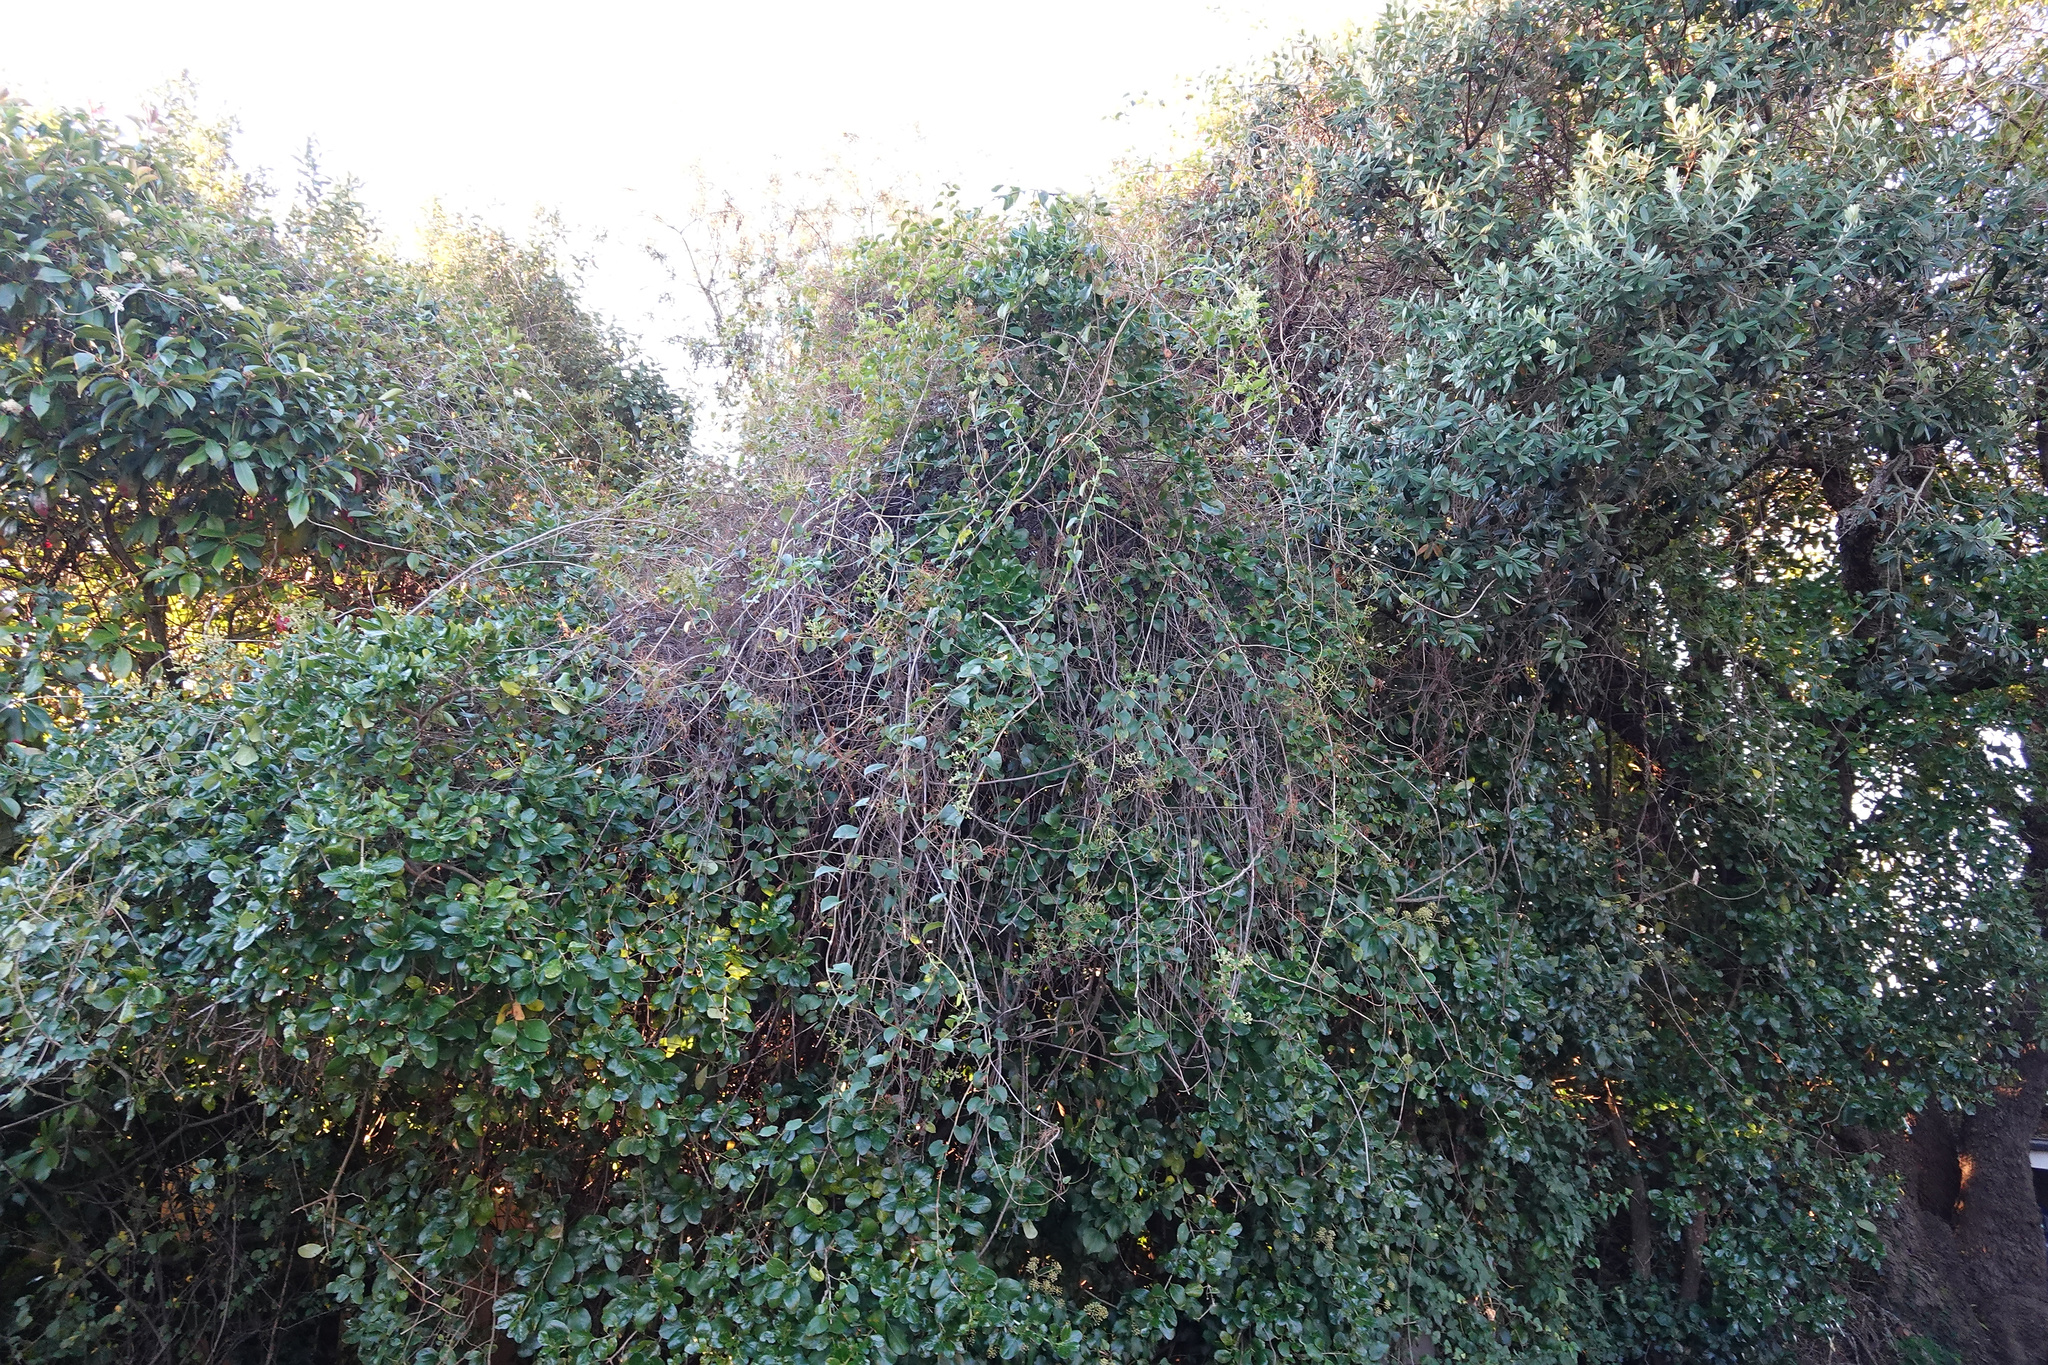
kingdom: Plantae
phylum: Tracheophyta
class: Magnoliopsida
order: Caryophyllales
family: Polygonaceae
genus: Muehlenbeckia
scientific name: Muehlenbeckia australis
